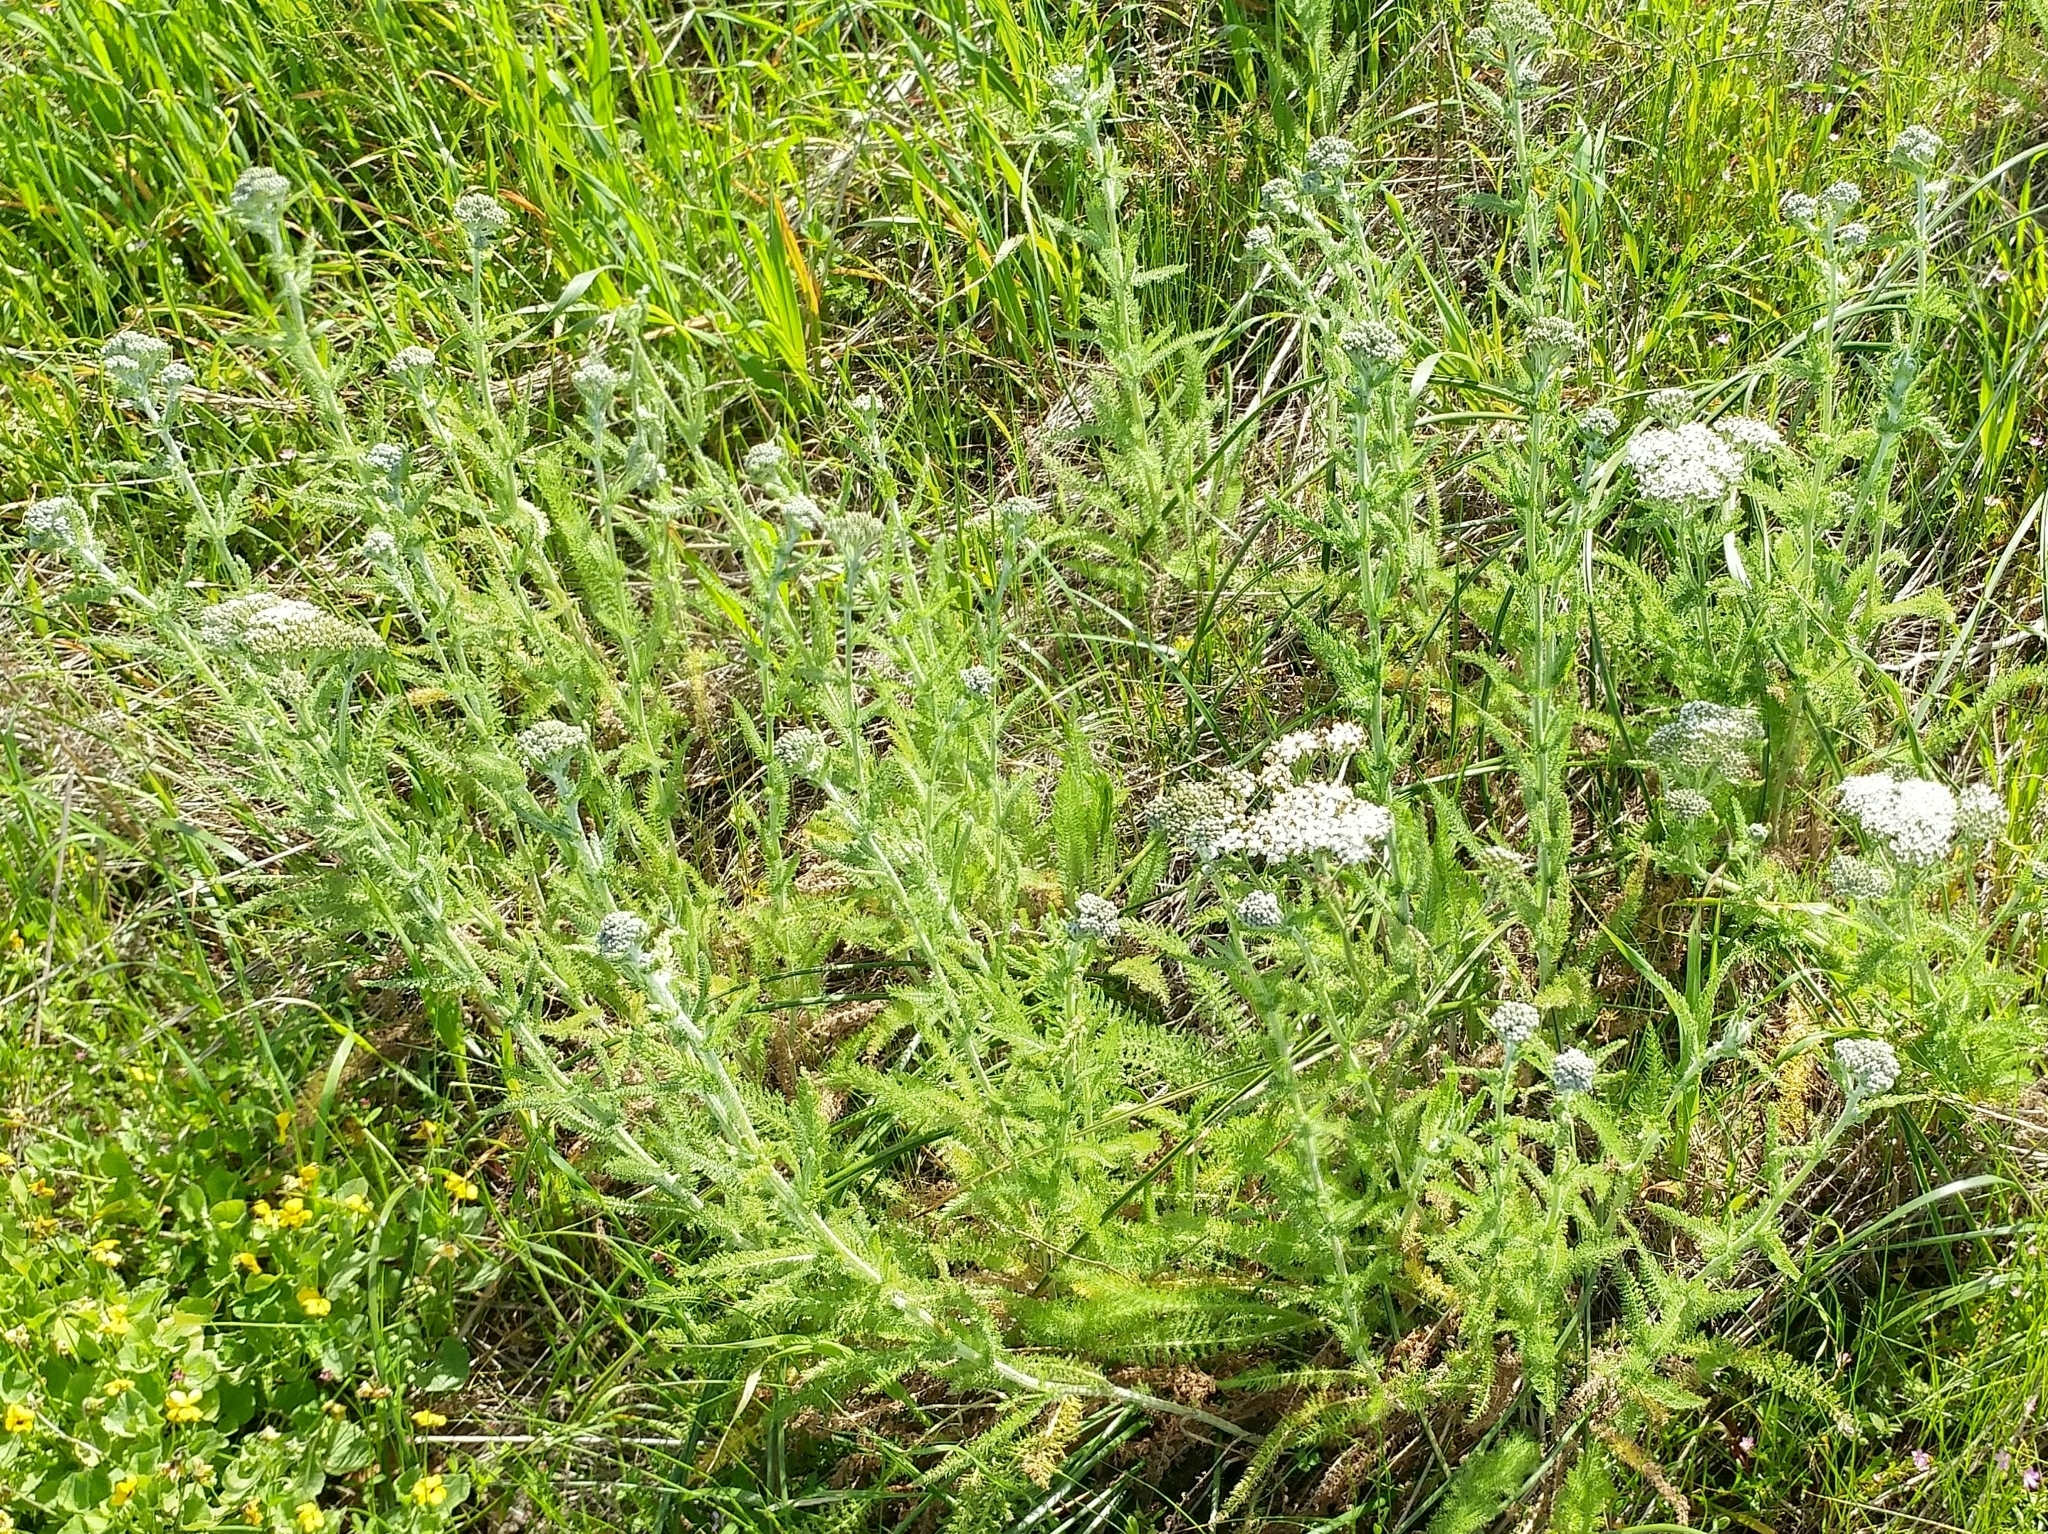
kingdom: Plantae
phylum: Tracheophyta
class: Magnoliopsida
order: Asterales
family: Asteraceae
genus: Achillea
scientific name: Achillea millefolium
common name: Yarrow
